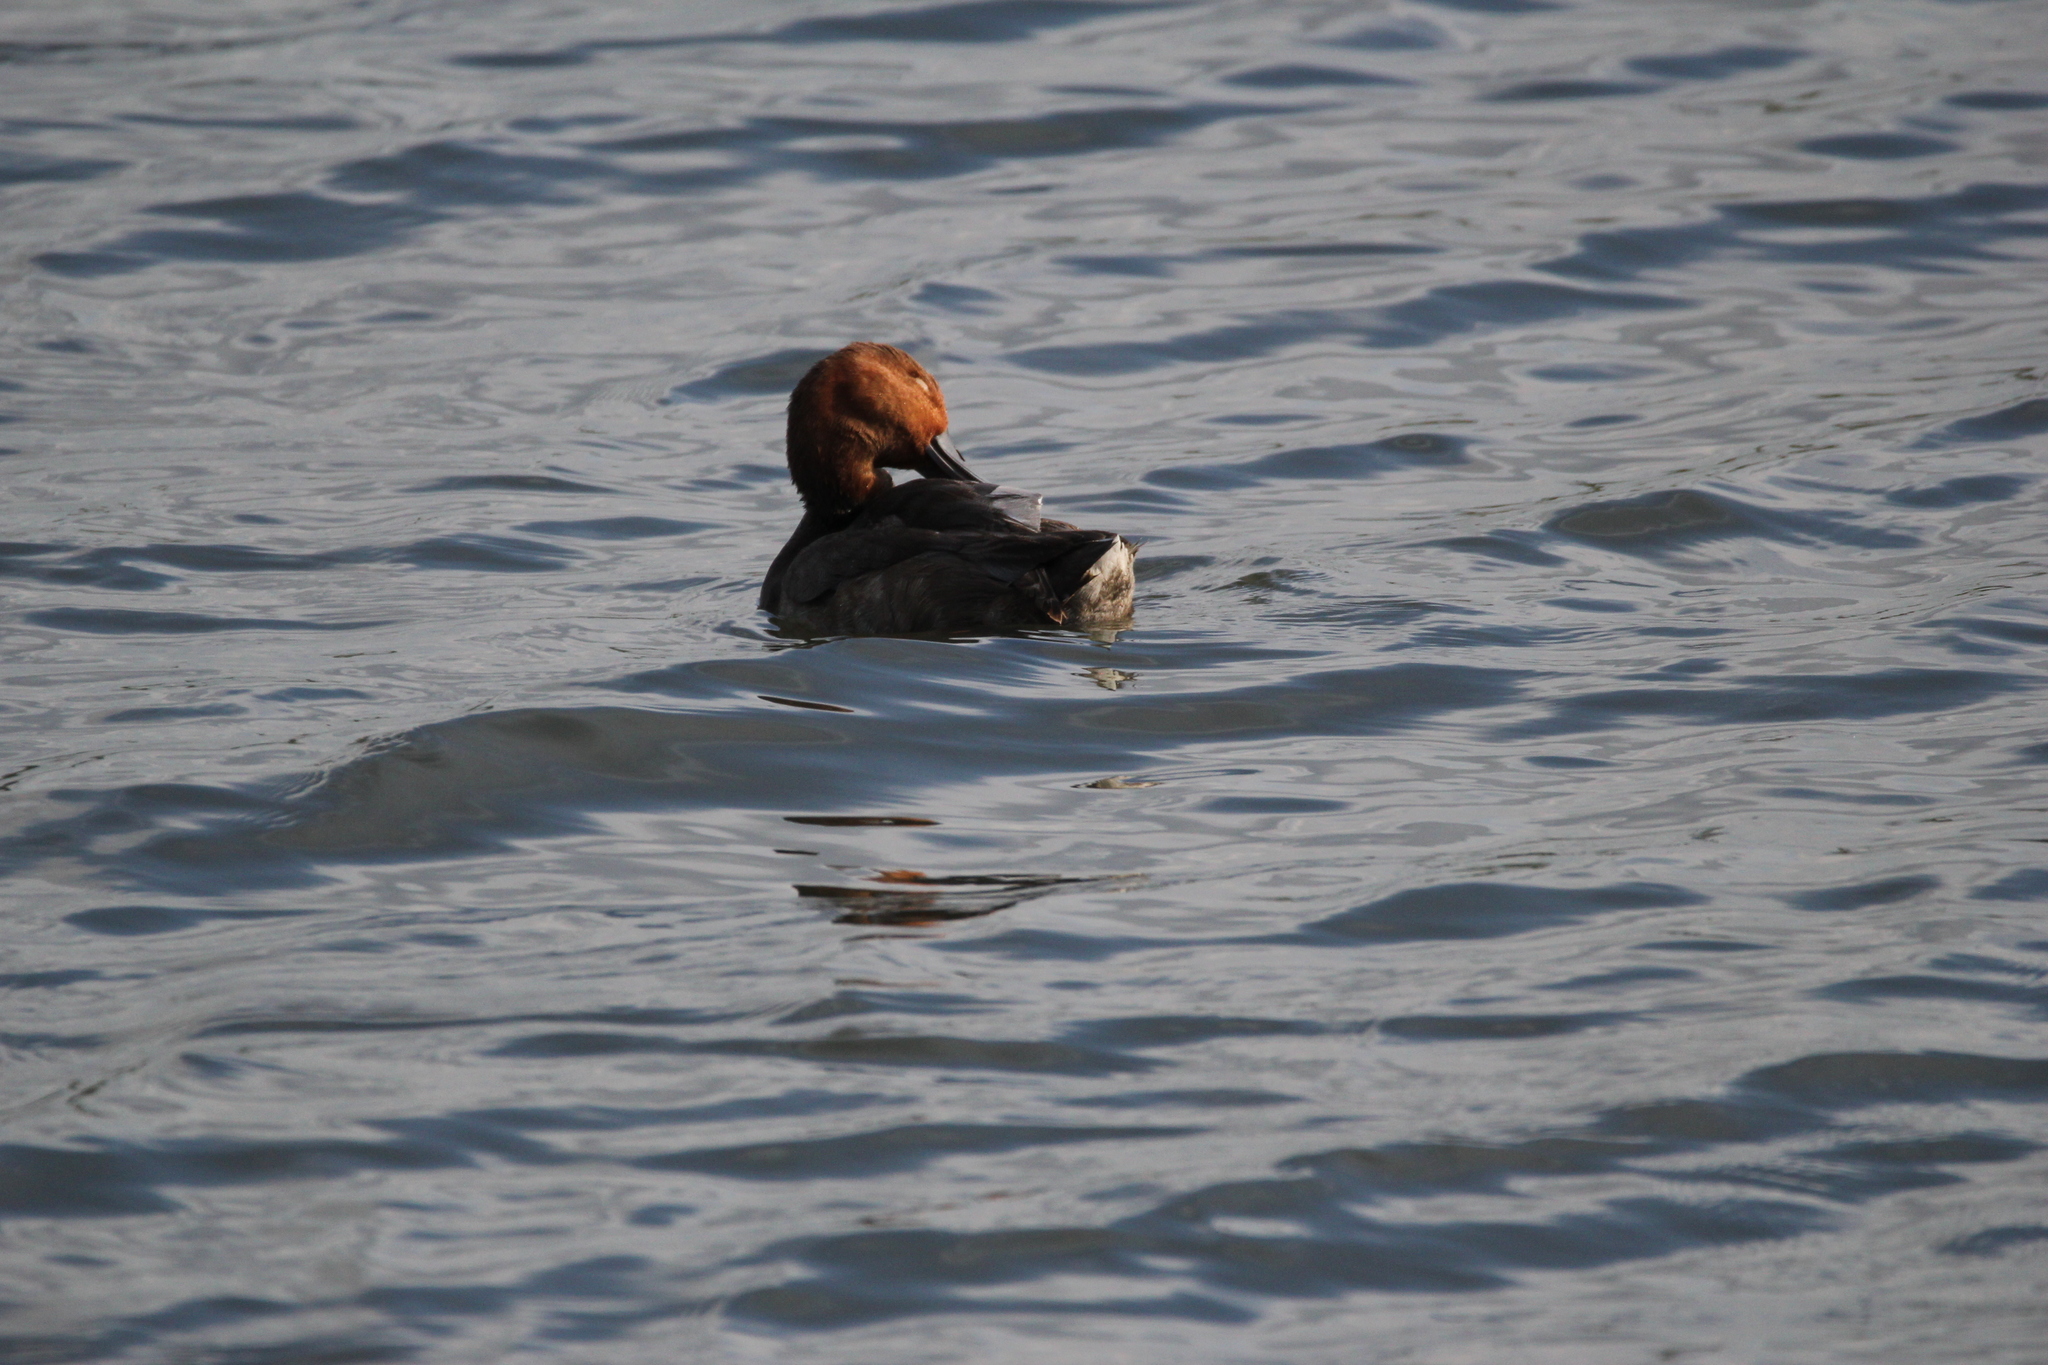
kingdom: Animalia
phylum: Chordata
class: Aves
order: Anseriformes
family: Anatidae
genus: Aythya
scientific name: Aythya americana
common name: Redhead
